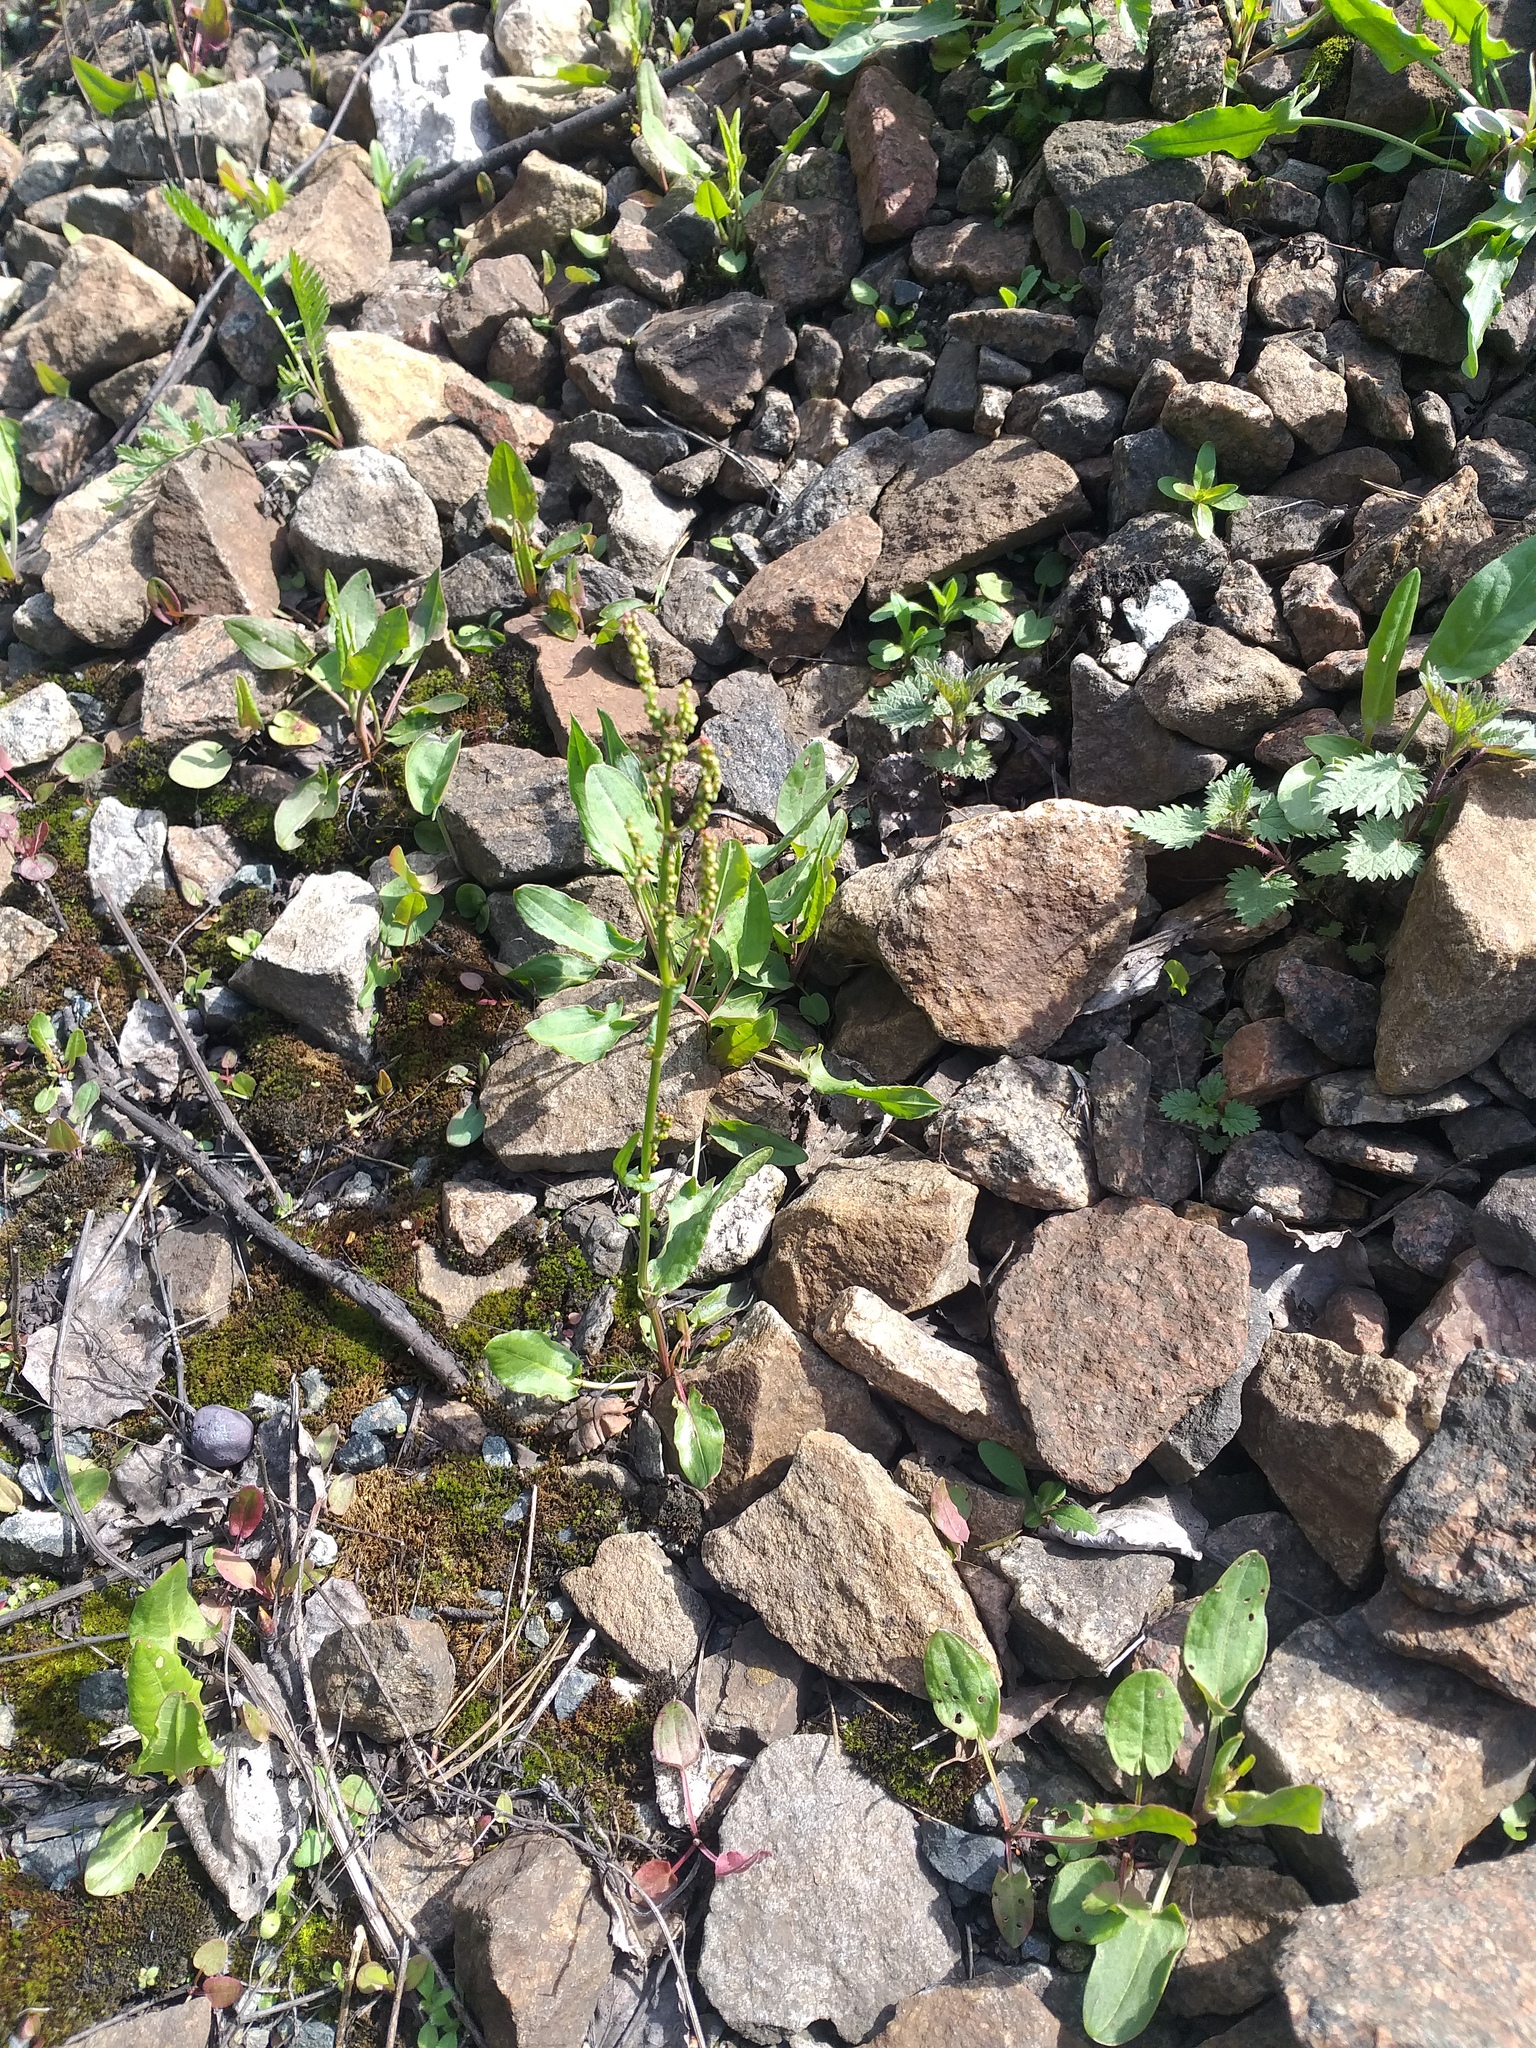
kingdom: Plantae
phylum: Tracheophyta
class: Magnoliopsida
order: Caryophyllales
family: Polygonaceae
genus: Rumex
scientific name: Rumex acetosa
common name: Garden sorrel
